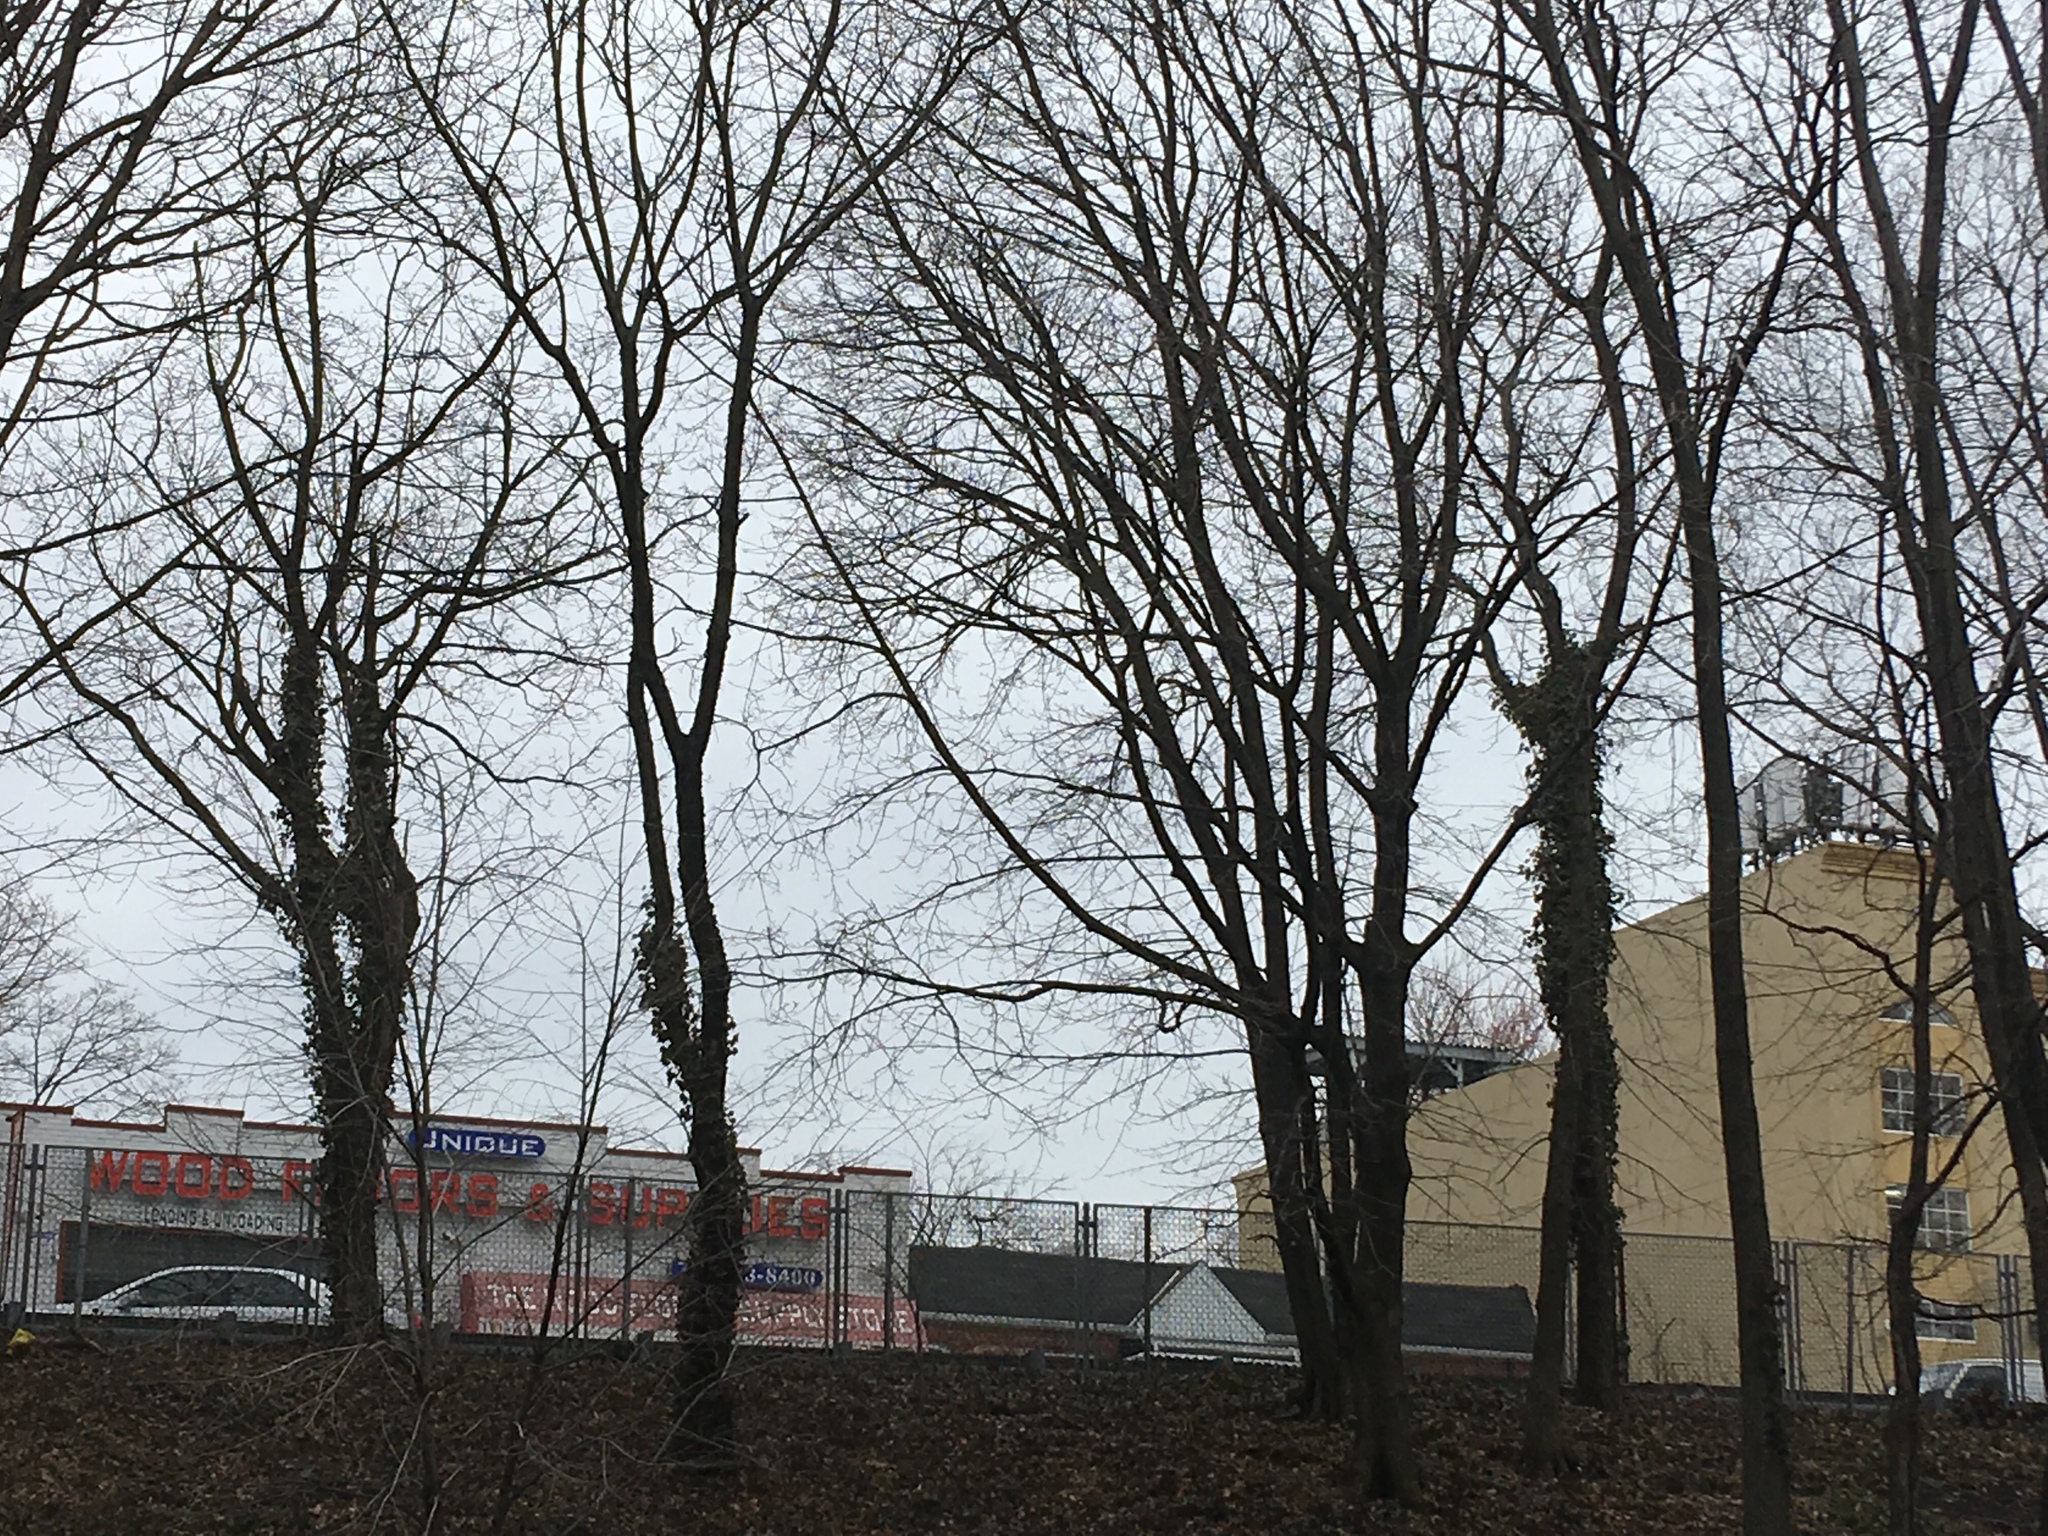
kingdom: Plantae
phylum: Tracheophyta
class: Magnoliopsida
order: Apiales
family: Araliaceae
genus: Hedera
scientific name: Hedera helix
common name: Ivy
